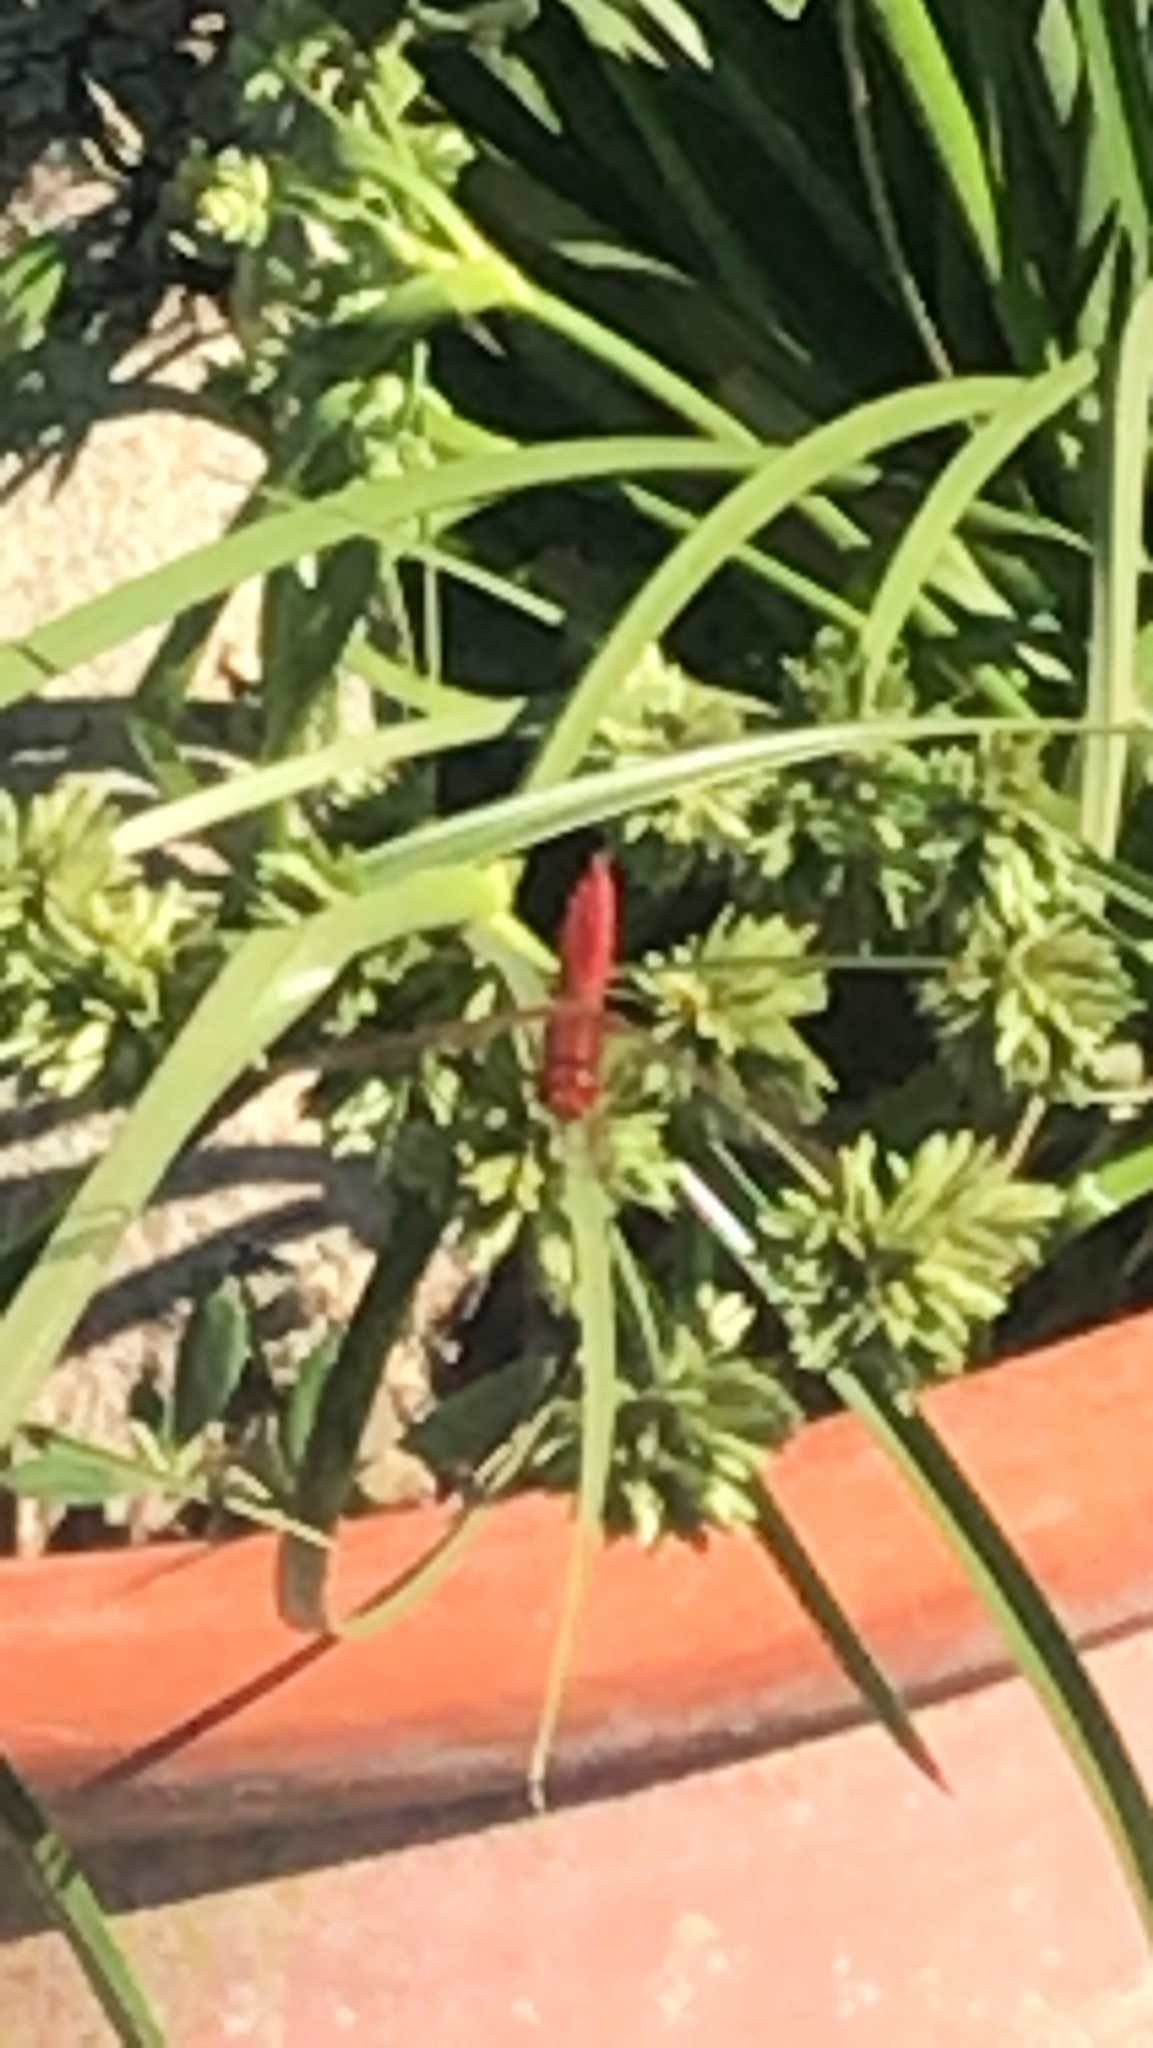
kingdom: Animalia
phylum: Arthropoda
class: Insecta
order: Odonata
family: Libellulidae
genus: Crocothemis
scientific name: Crocothemis erythraea
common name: Scarlet dragonfly
